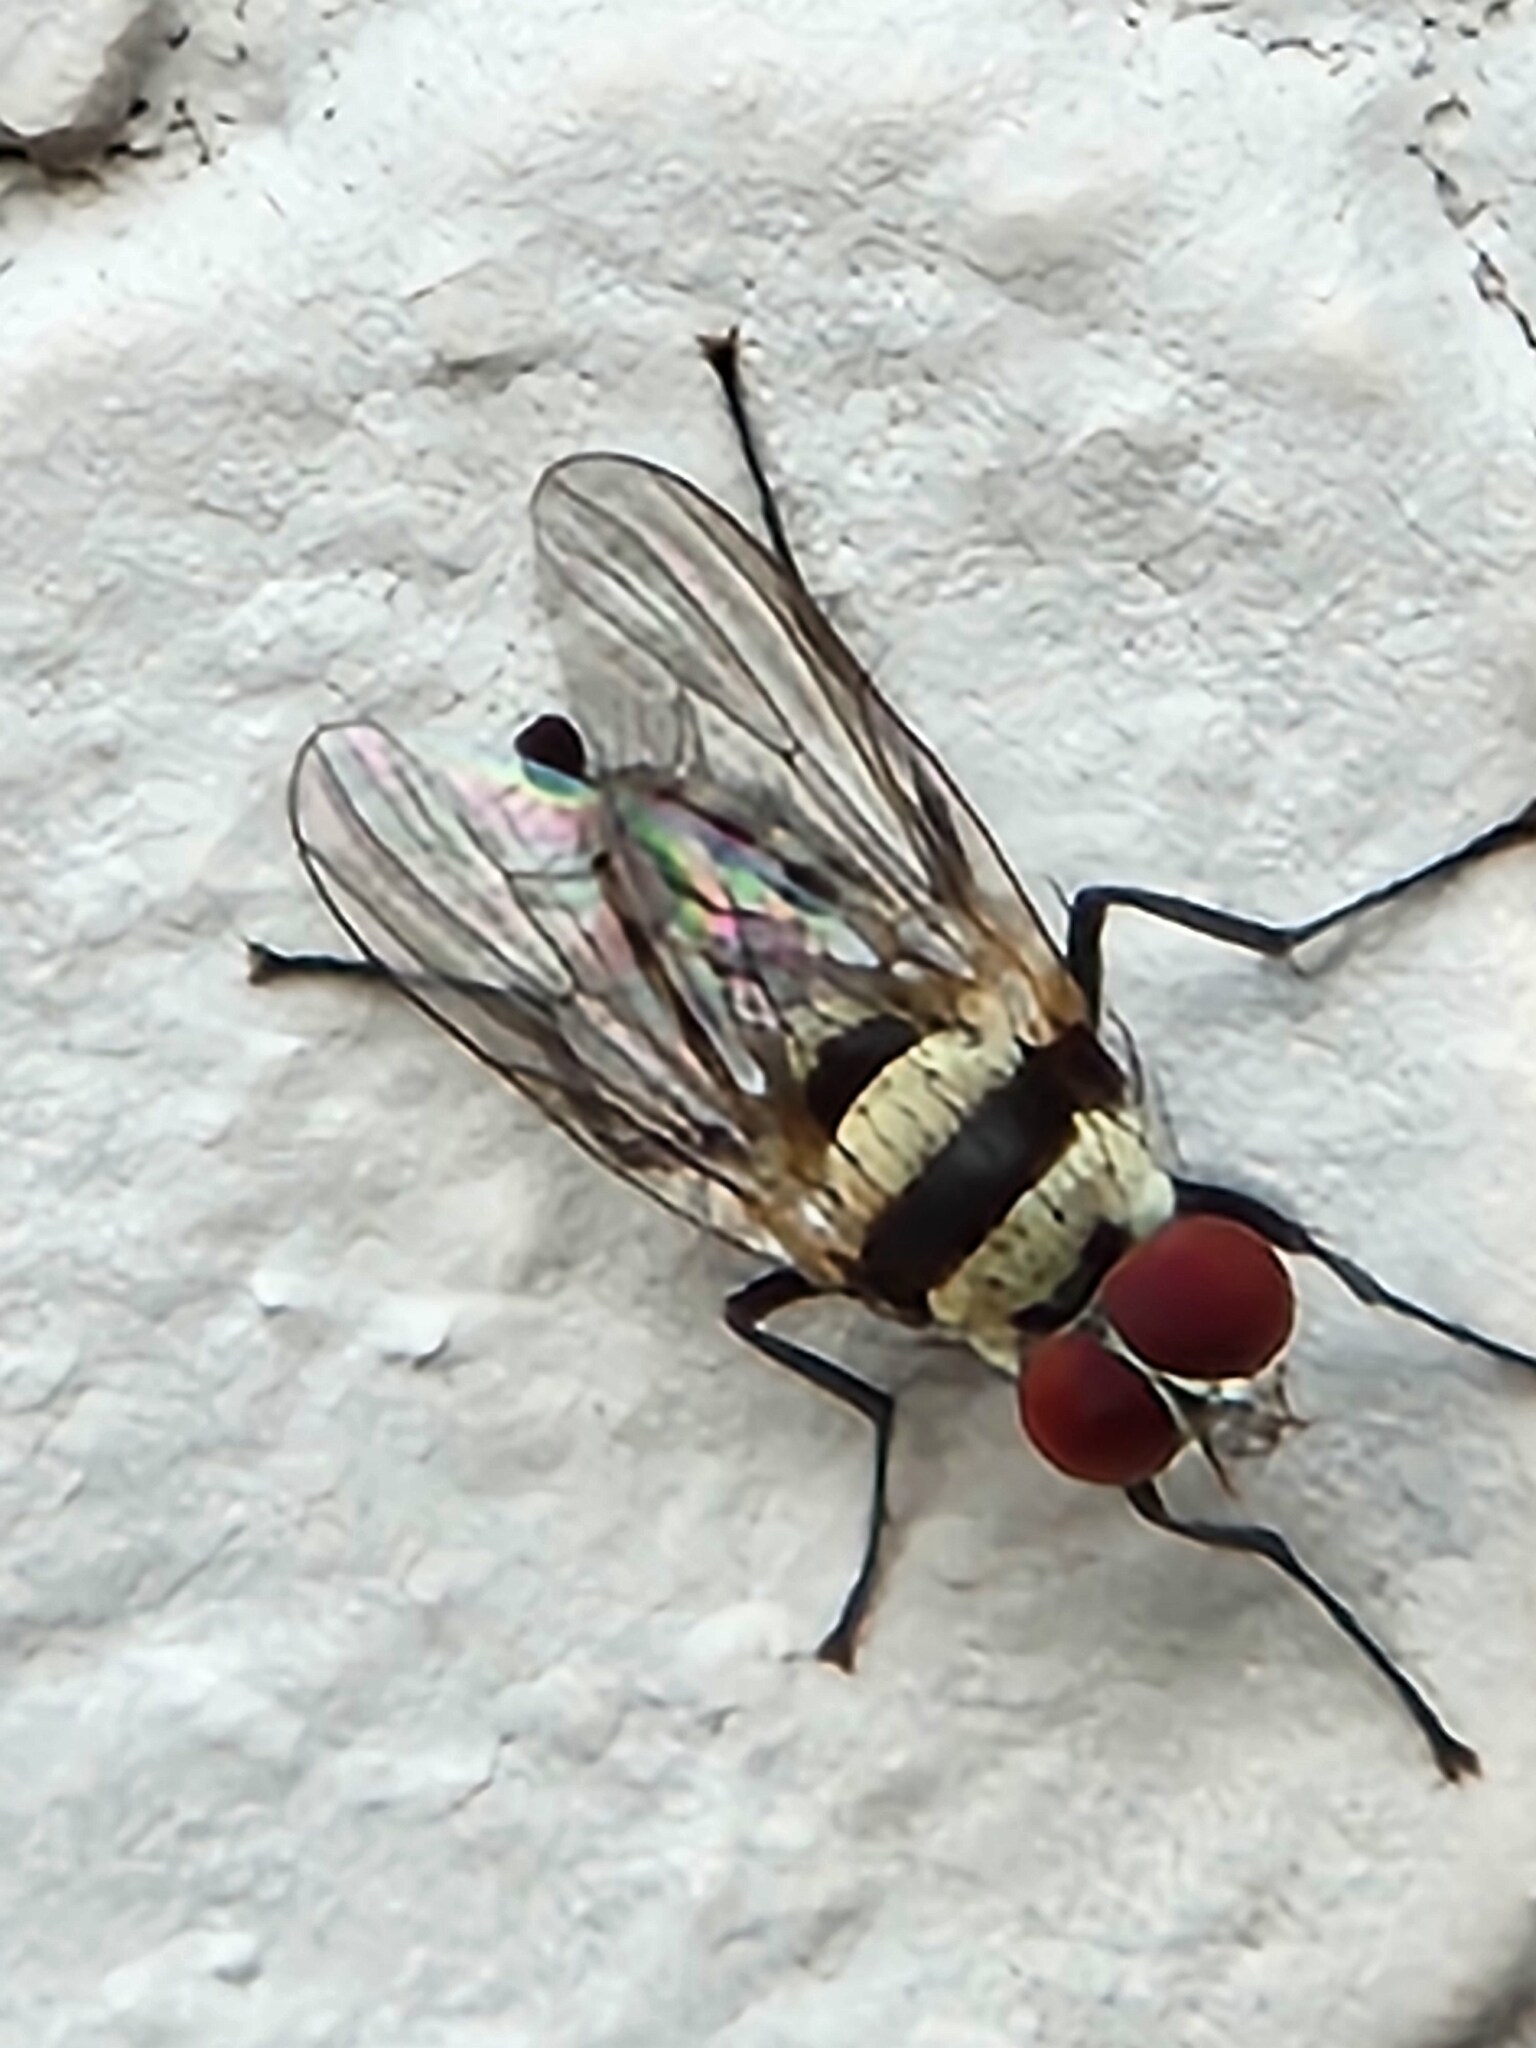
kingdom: Animalia
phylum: Arthropoda
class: Insecta
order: Diptera
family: Anthomyiidae
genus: Anthomyia
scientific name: Anthomyia illocata
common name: Fly
